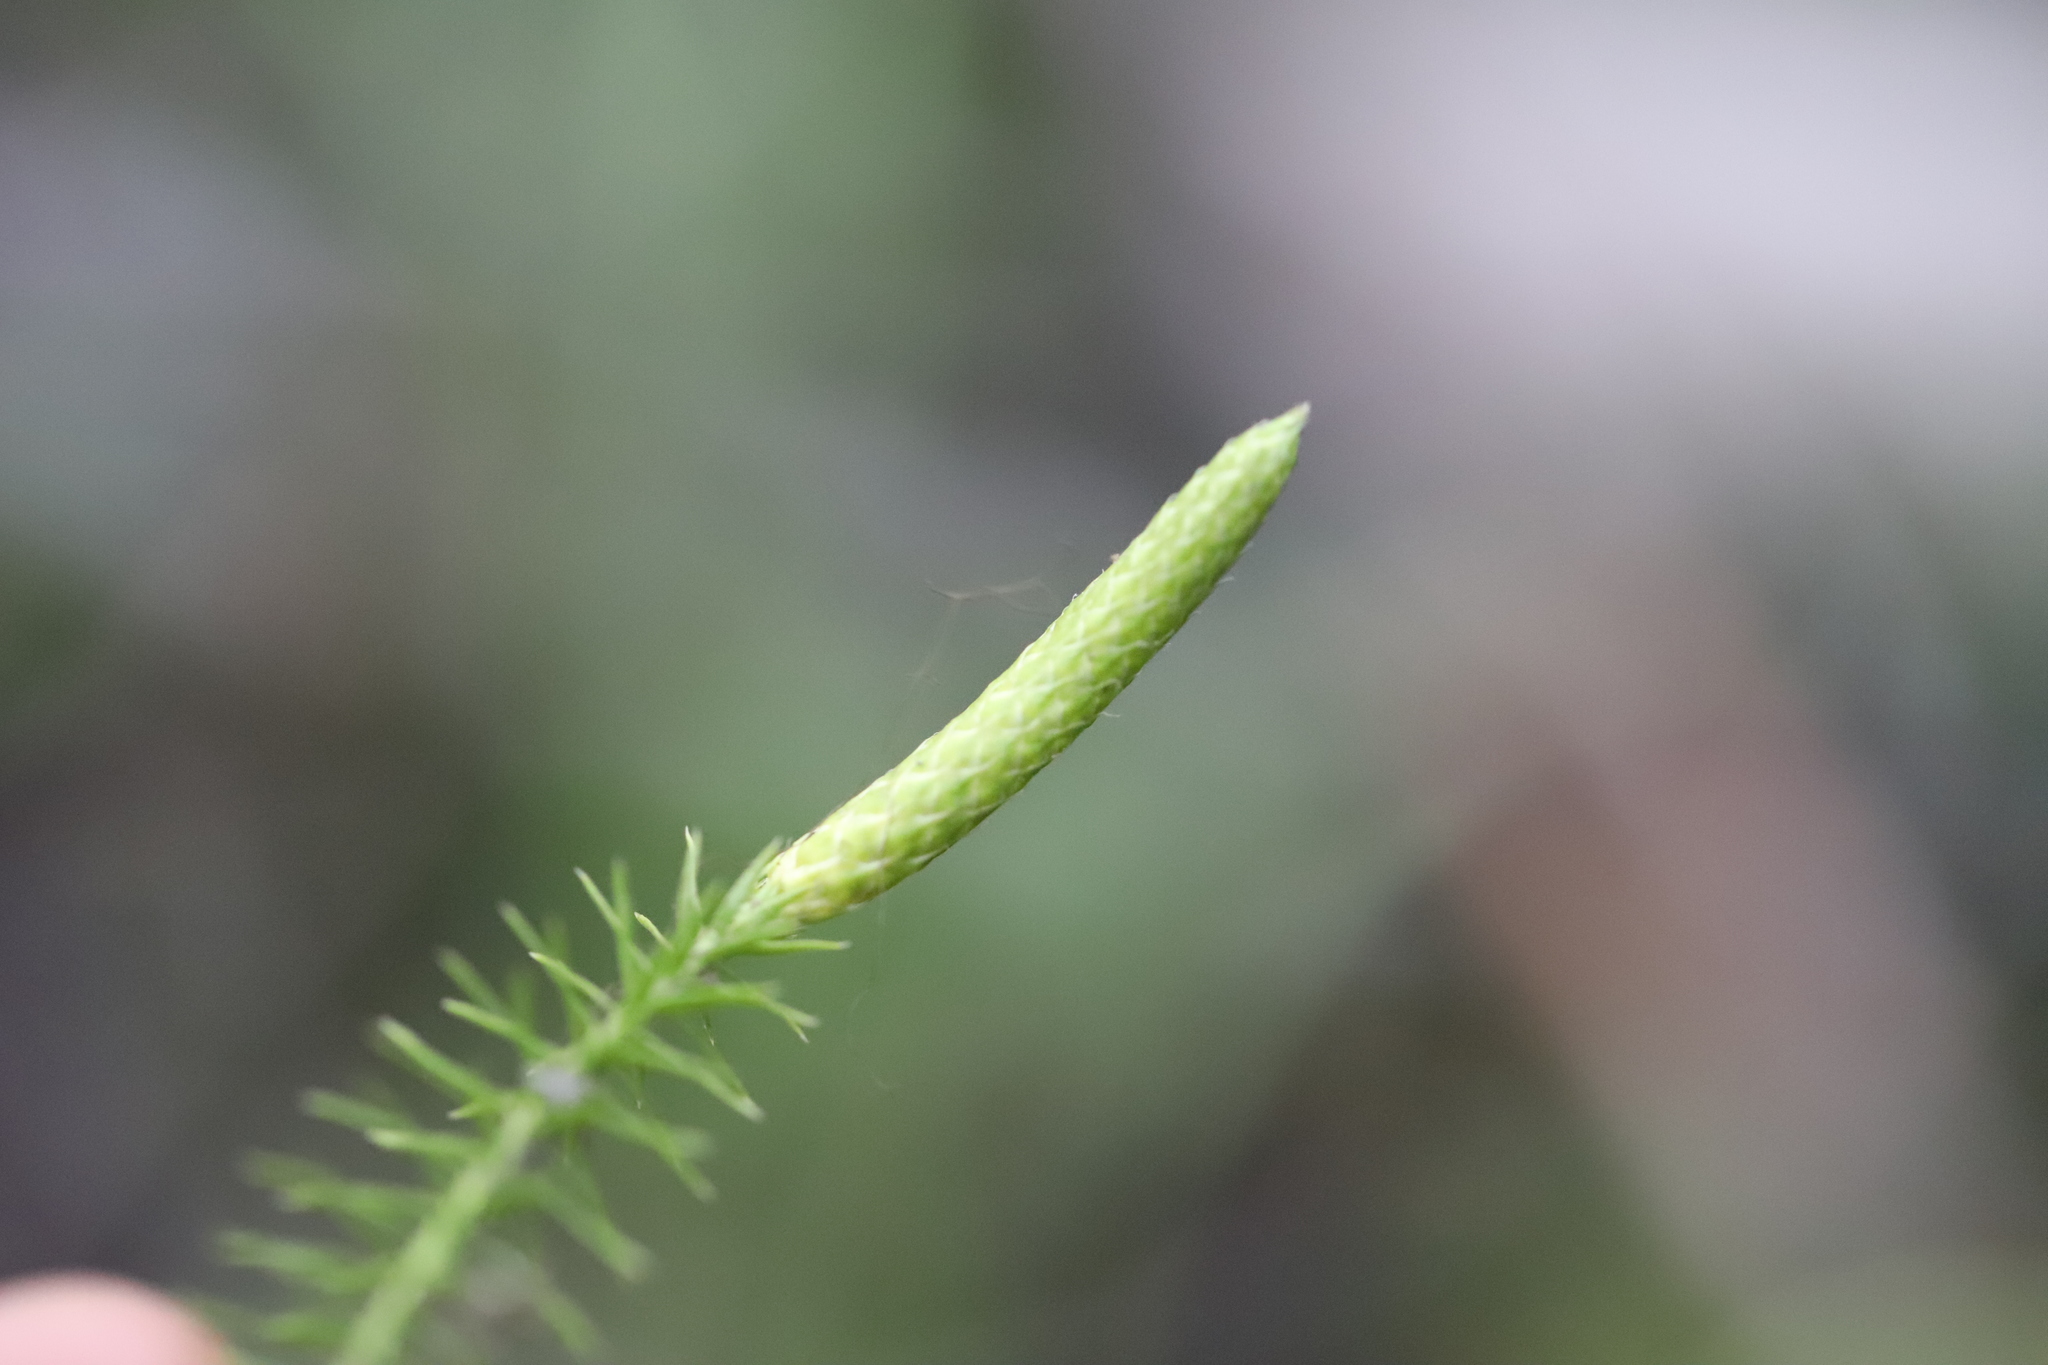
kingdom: Plantae
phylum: Tracheophyta
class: Lycopodiopsida
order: Lycopodiales
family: Lycopodiaceae
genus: Spinulum
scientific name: Spinulum annotinum
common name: Interrupted club-moss
